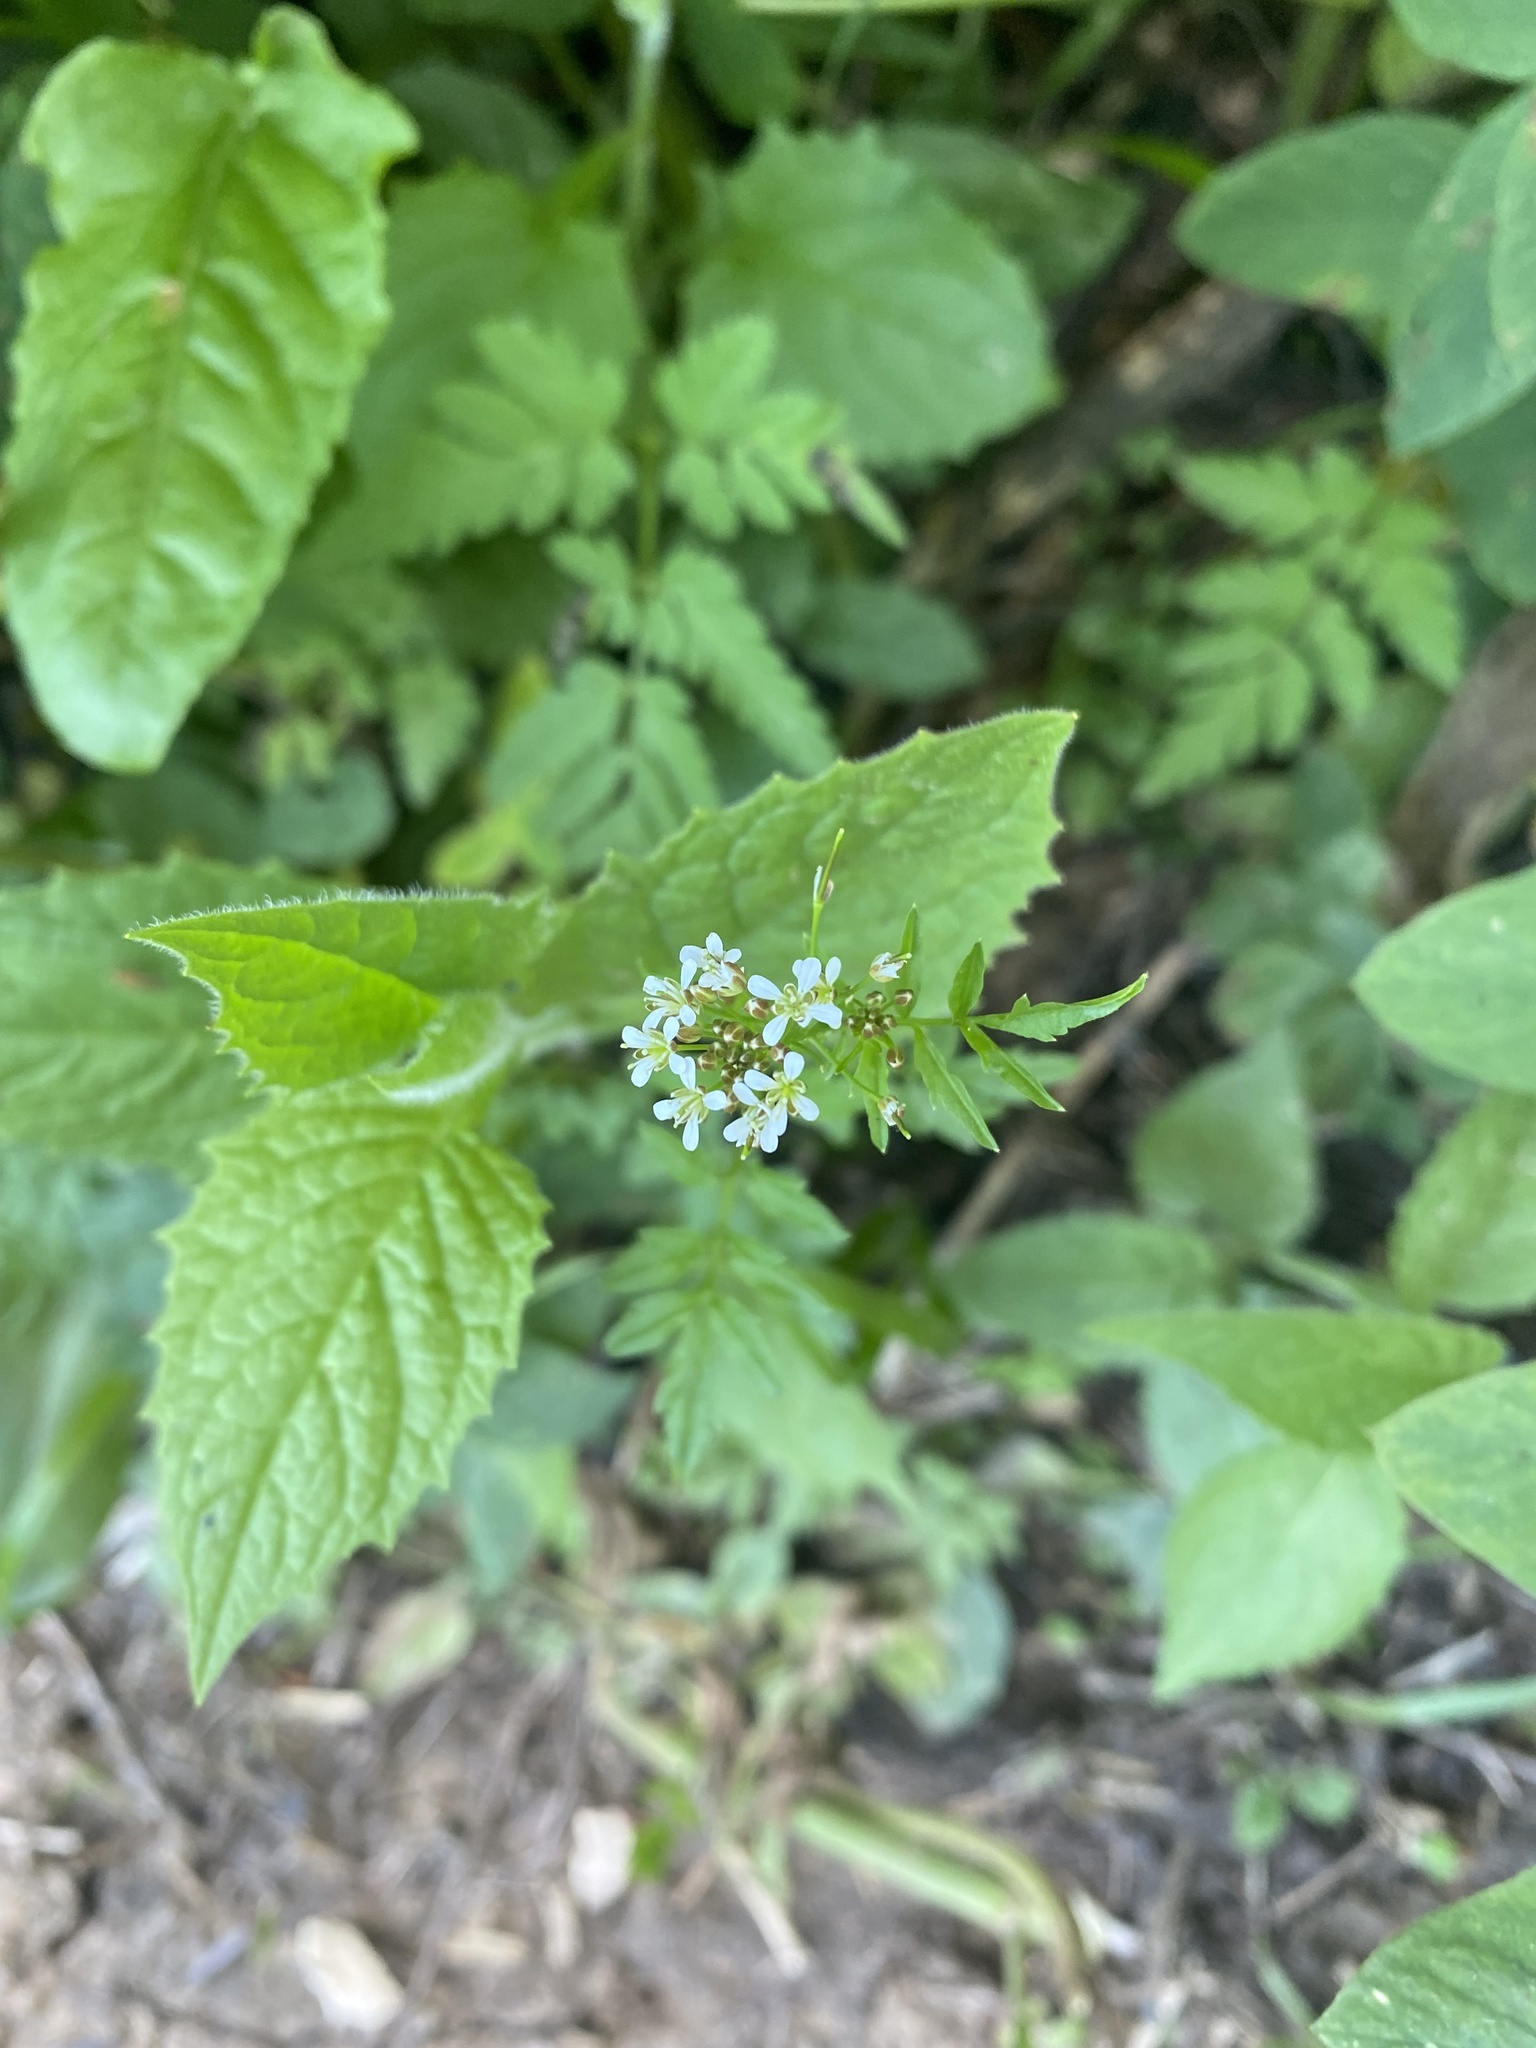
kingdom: Plantae
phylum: Tracheophyta
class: Magnoliopsida
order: Brassicales
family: Brassicaceae
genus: Alliaria
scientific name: Alliaria petiolata
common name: Garlic mustard
